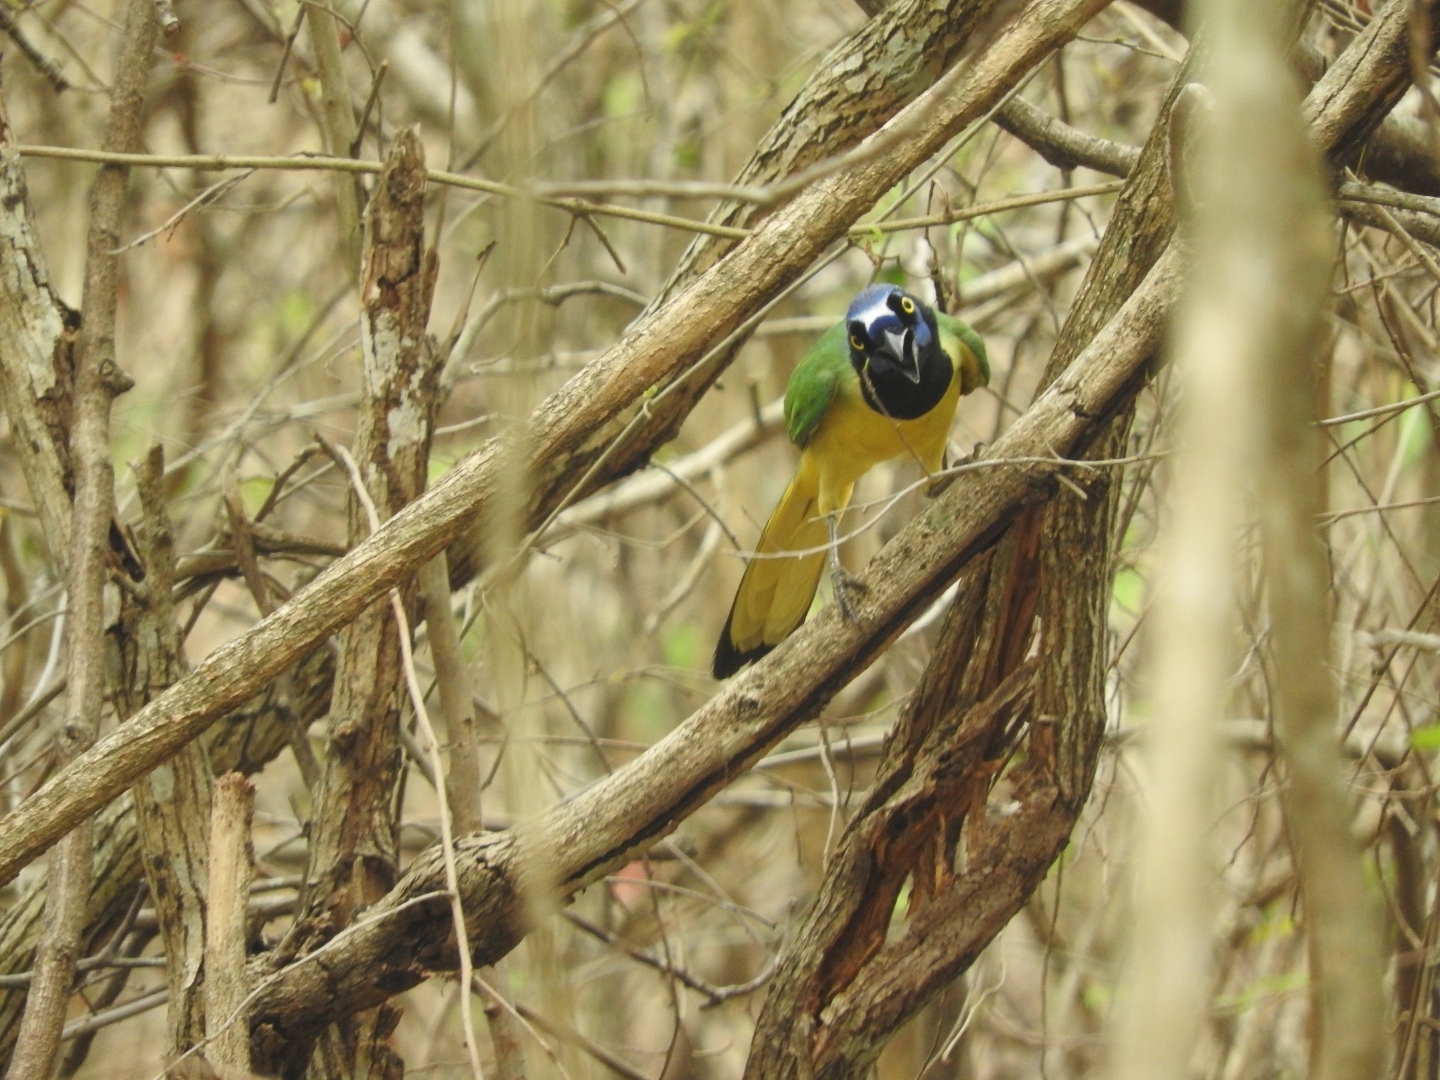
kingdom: Animalia
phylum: Chordata
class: Aves
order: Passeriformes
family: Corvidae
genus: Cyanocorax
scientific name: Cyanocorax yncas
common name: Green jay
